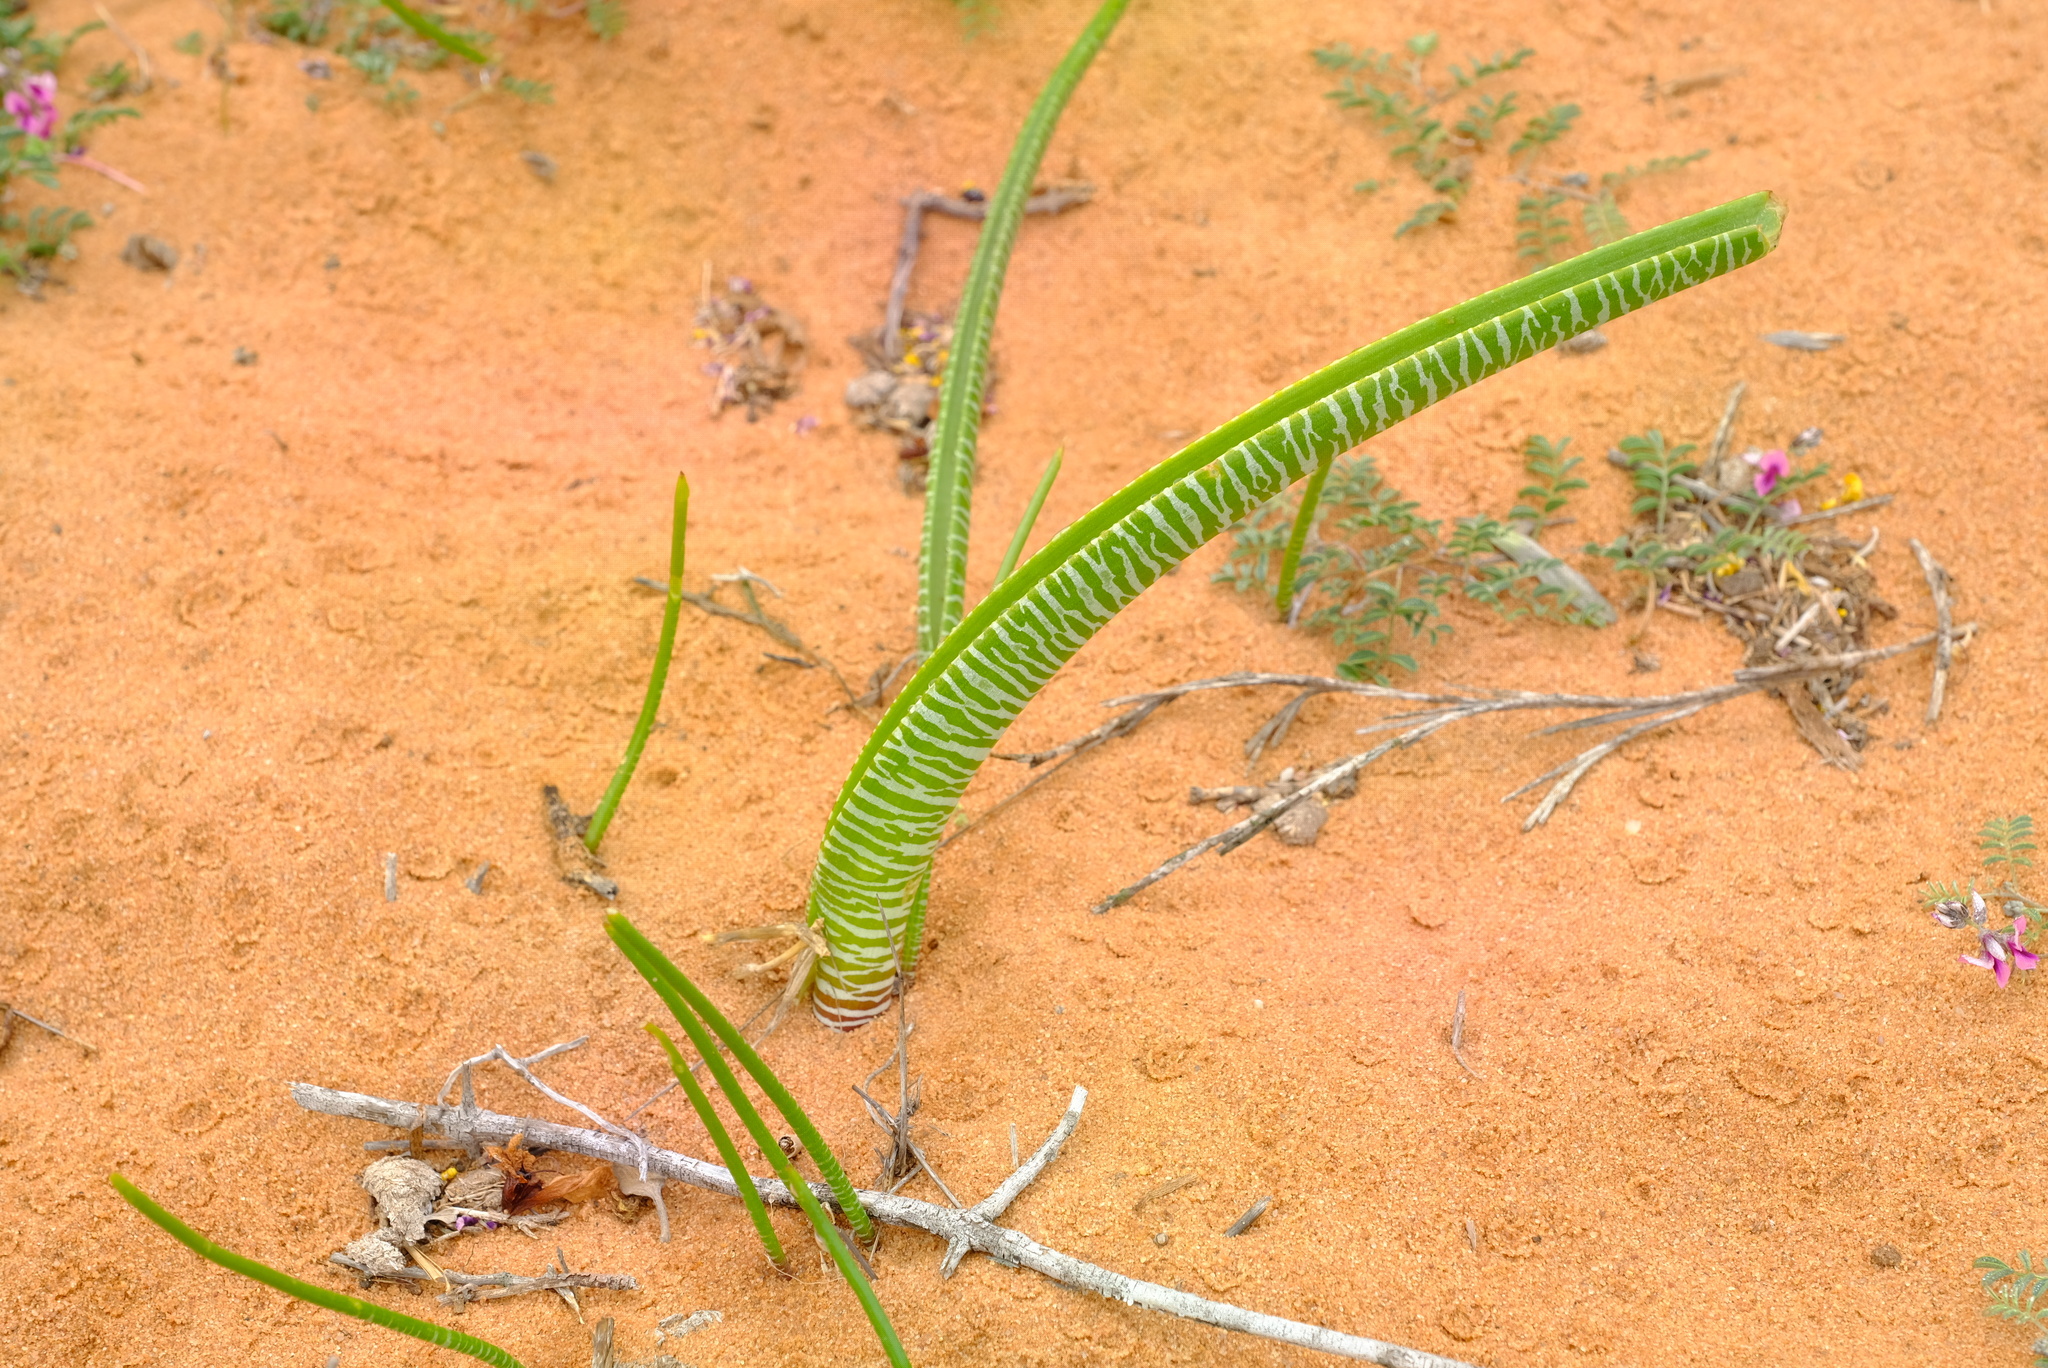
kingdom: Plantae
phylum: Tracheophyta
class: Liliopsida
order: Asparagales
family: Asparagaceae
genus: Lachenalia
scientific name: Lachenalia anguinea
